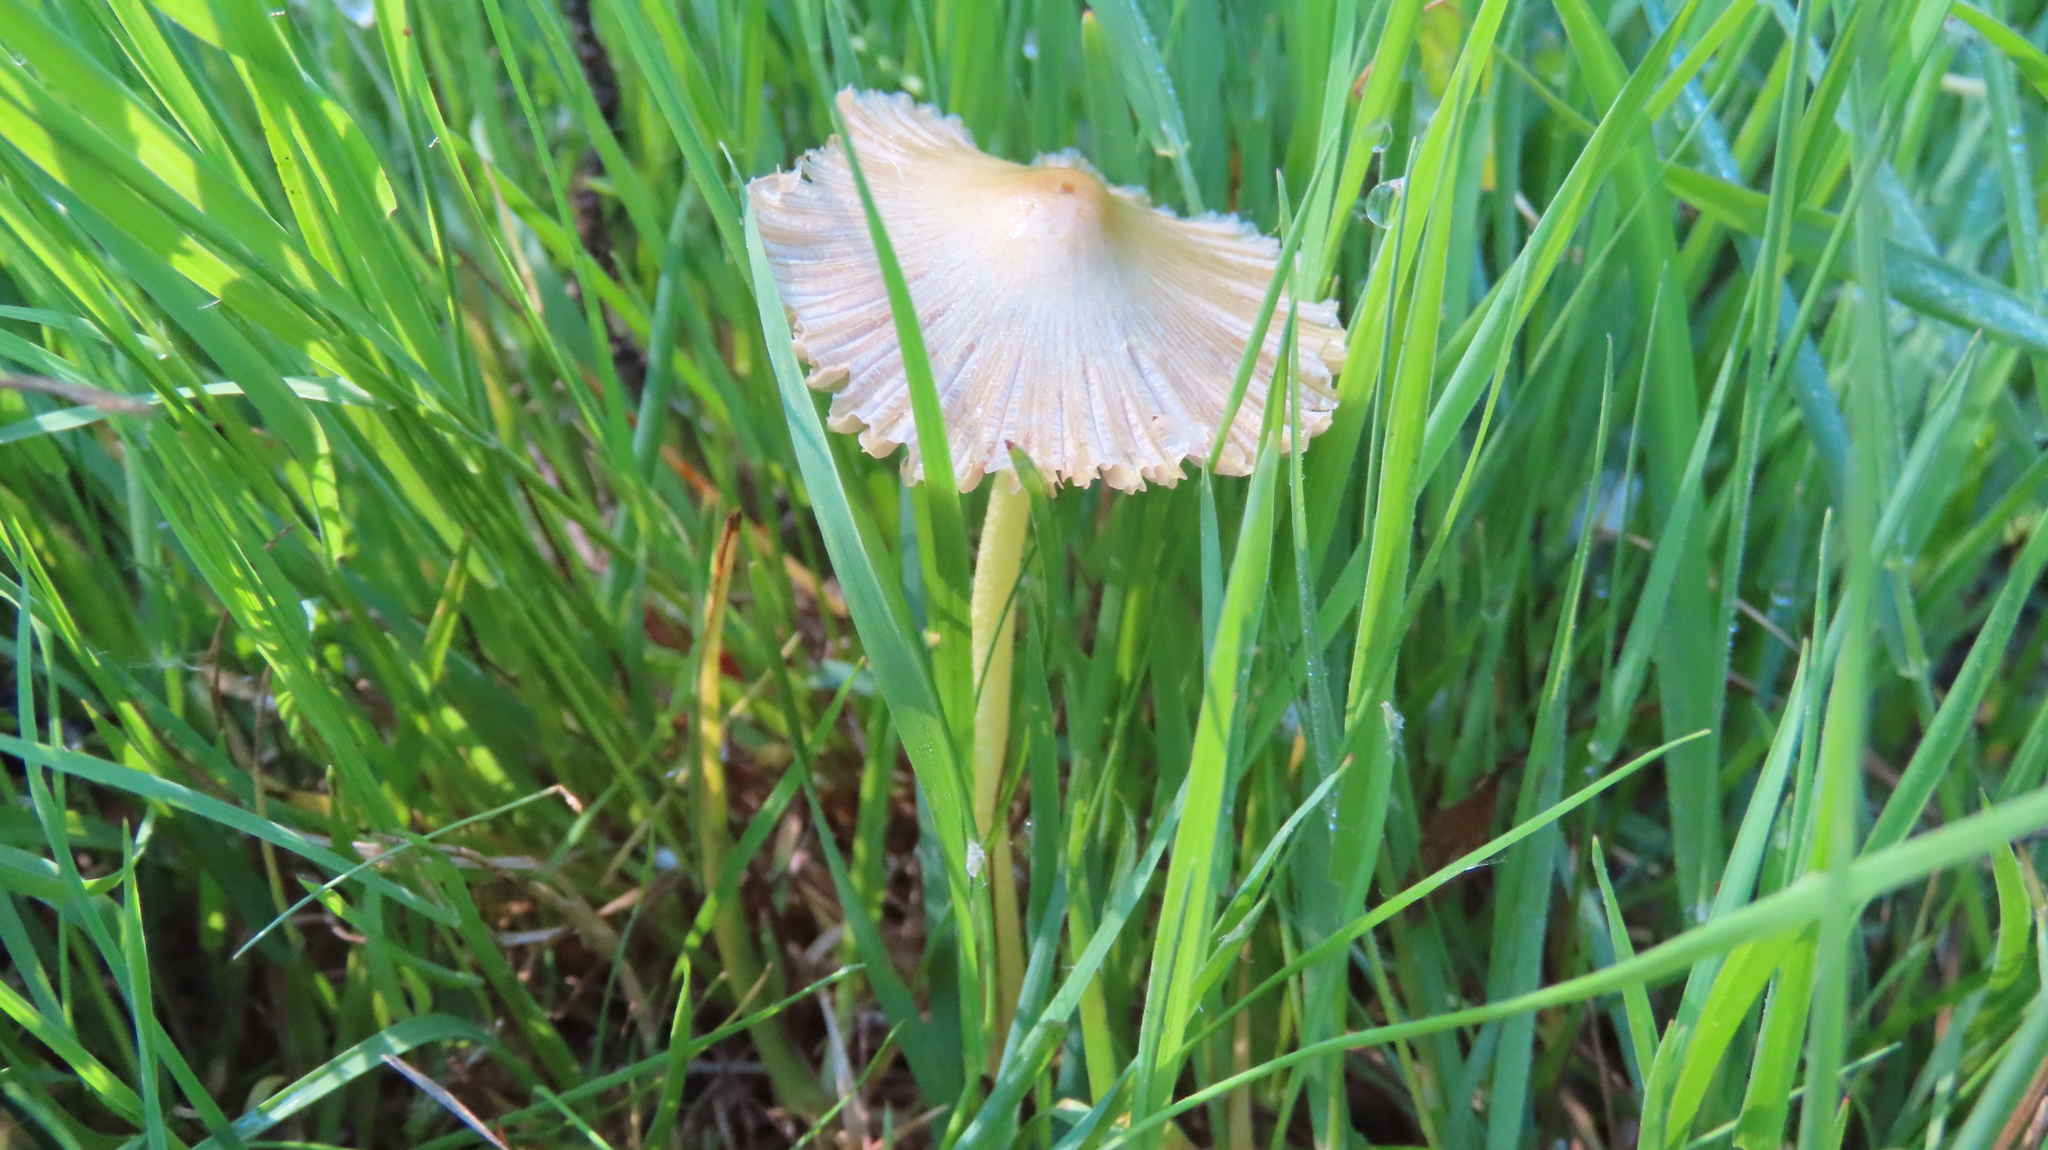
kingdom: Fungi
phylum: Basidiomycota
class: Agaricomycetes
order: Agaricales
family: Bolbitiaceae
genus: Bolbitius
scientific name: Bolbitius titubans
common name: Yellow fieldcap
